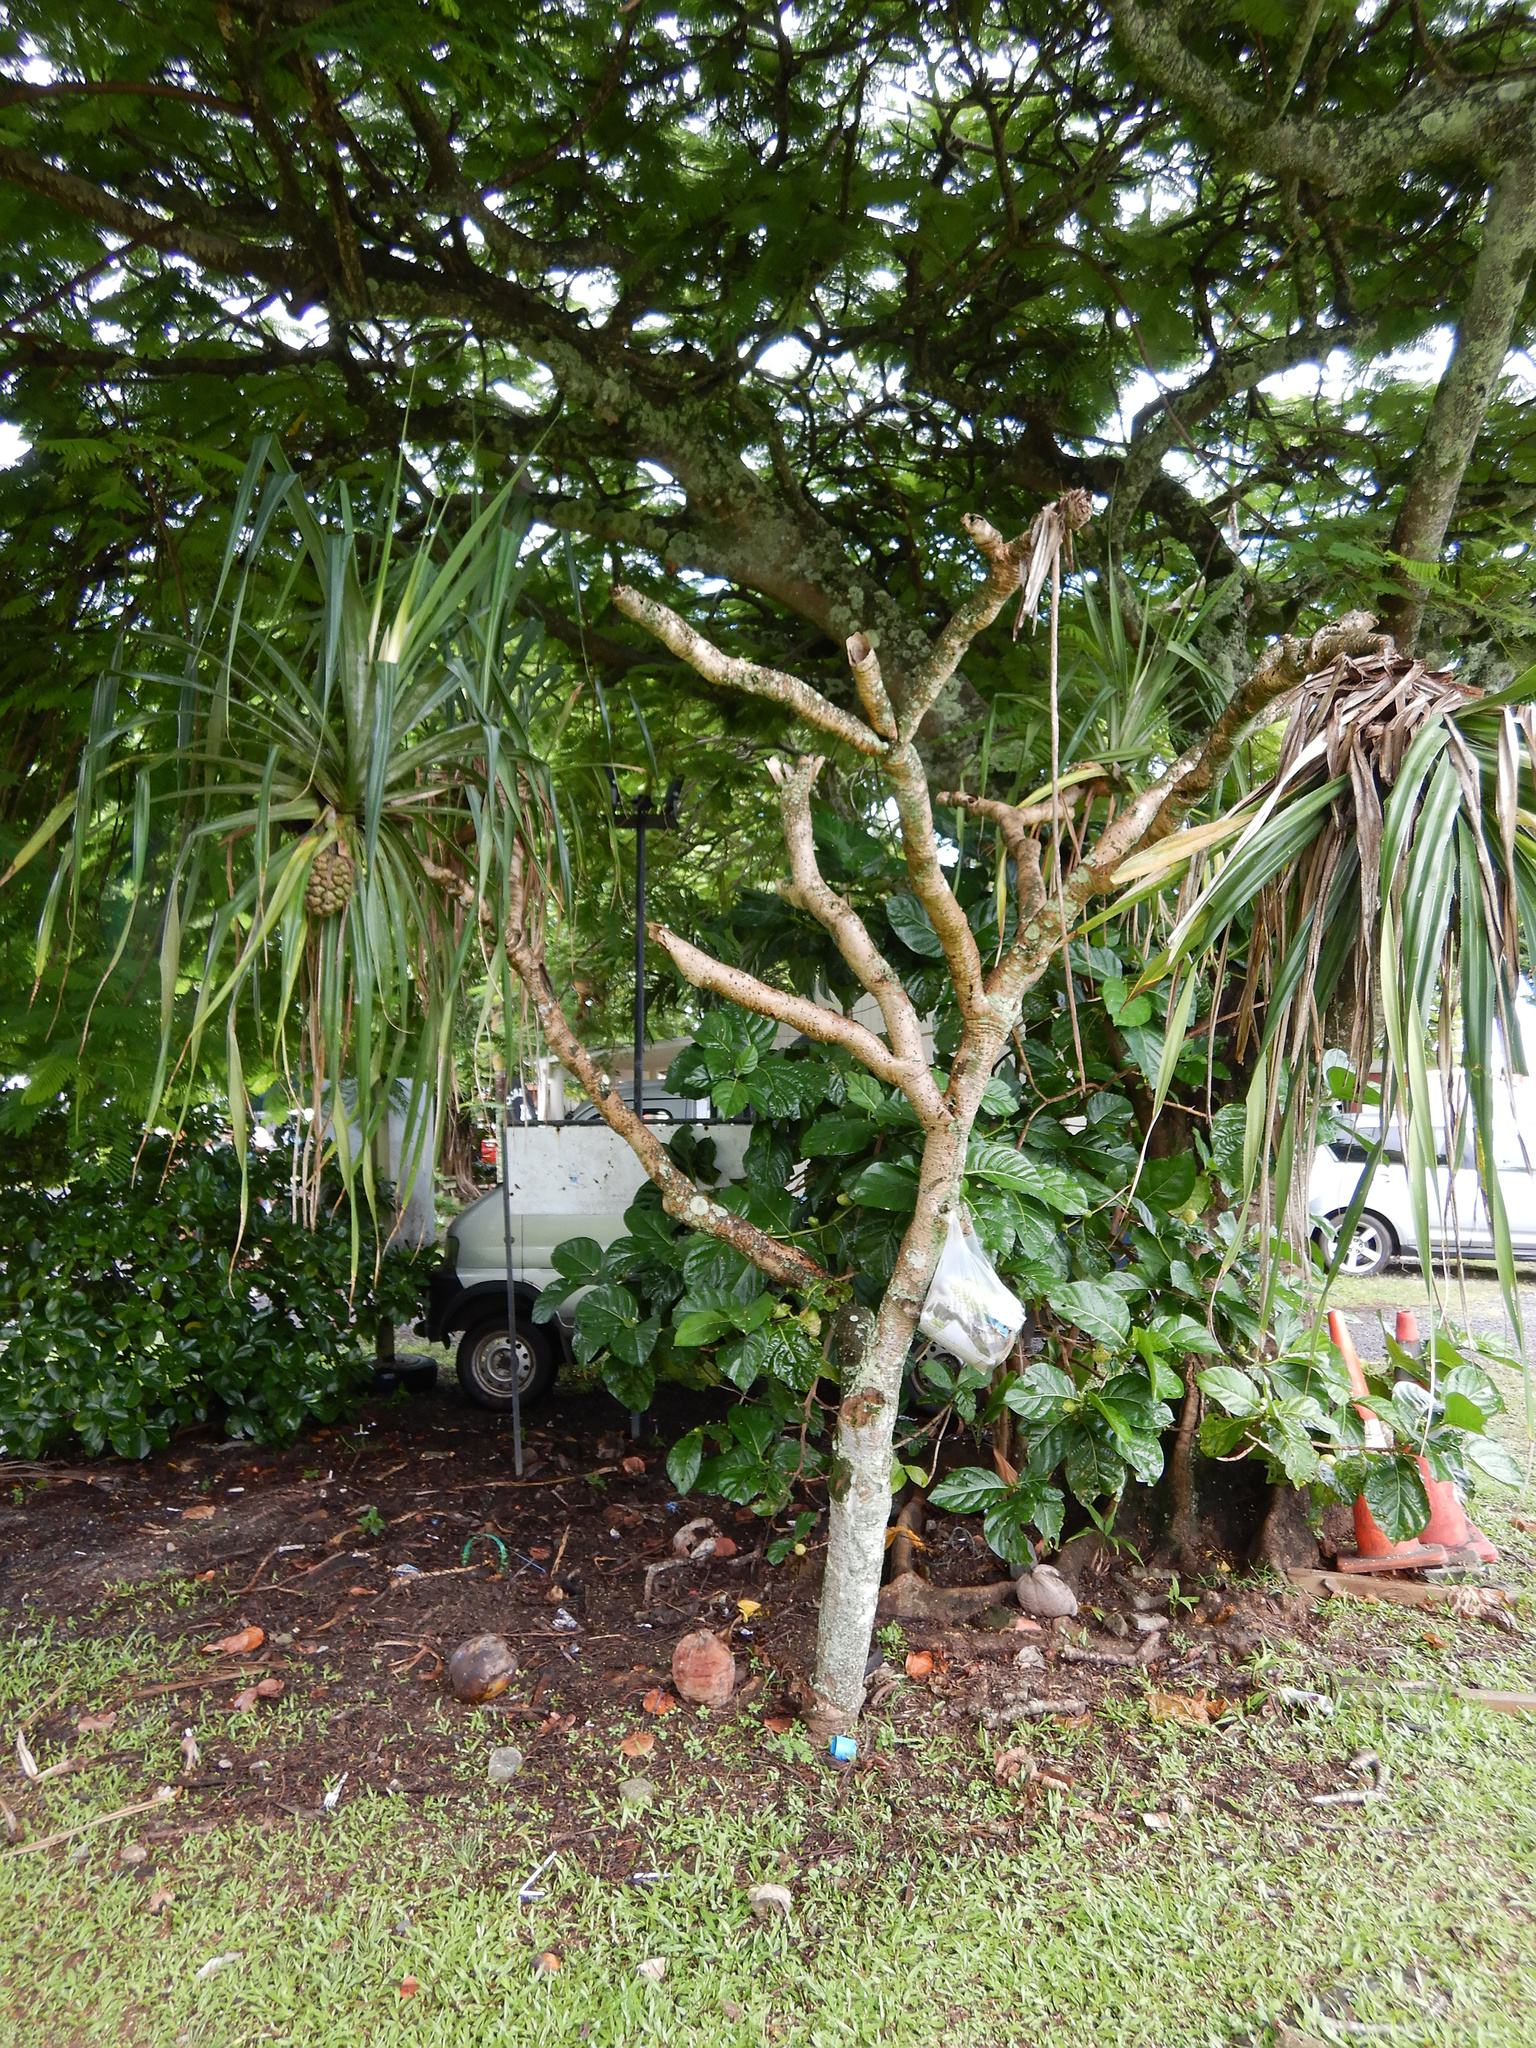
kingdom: Plantae
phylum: Tracheophyta
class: Liliopsida
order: Pandanales
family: Pandanaceae
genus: Pandanus
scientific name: Pandanus tectorius
